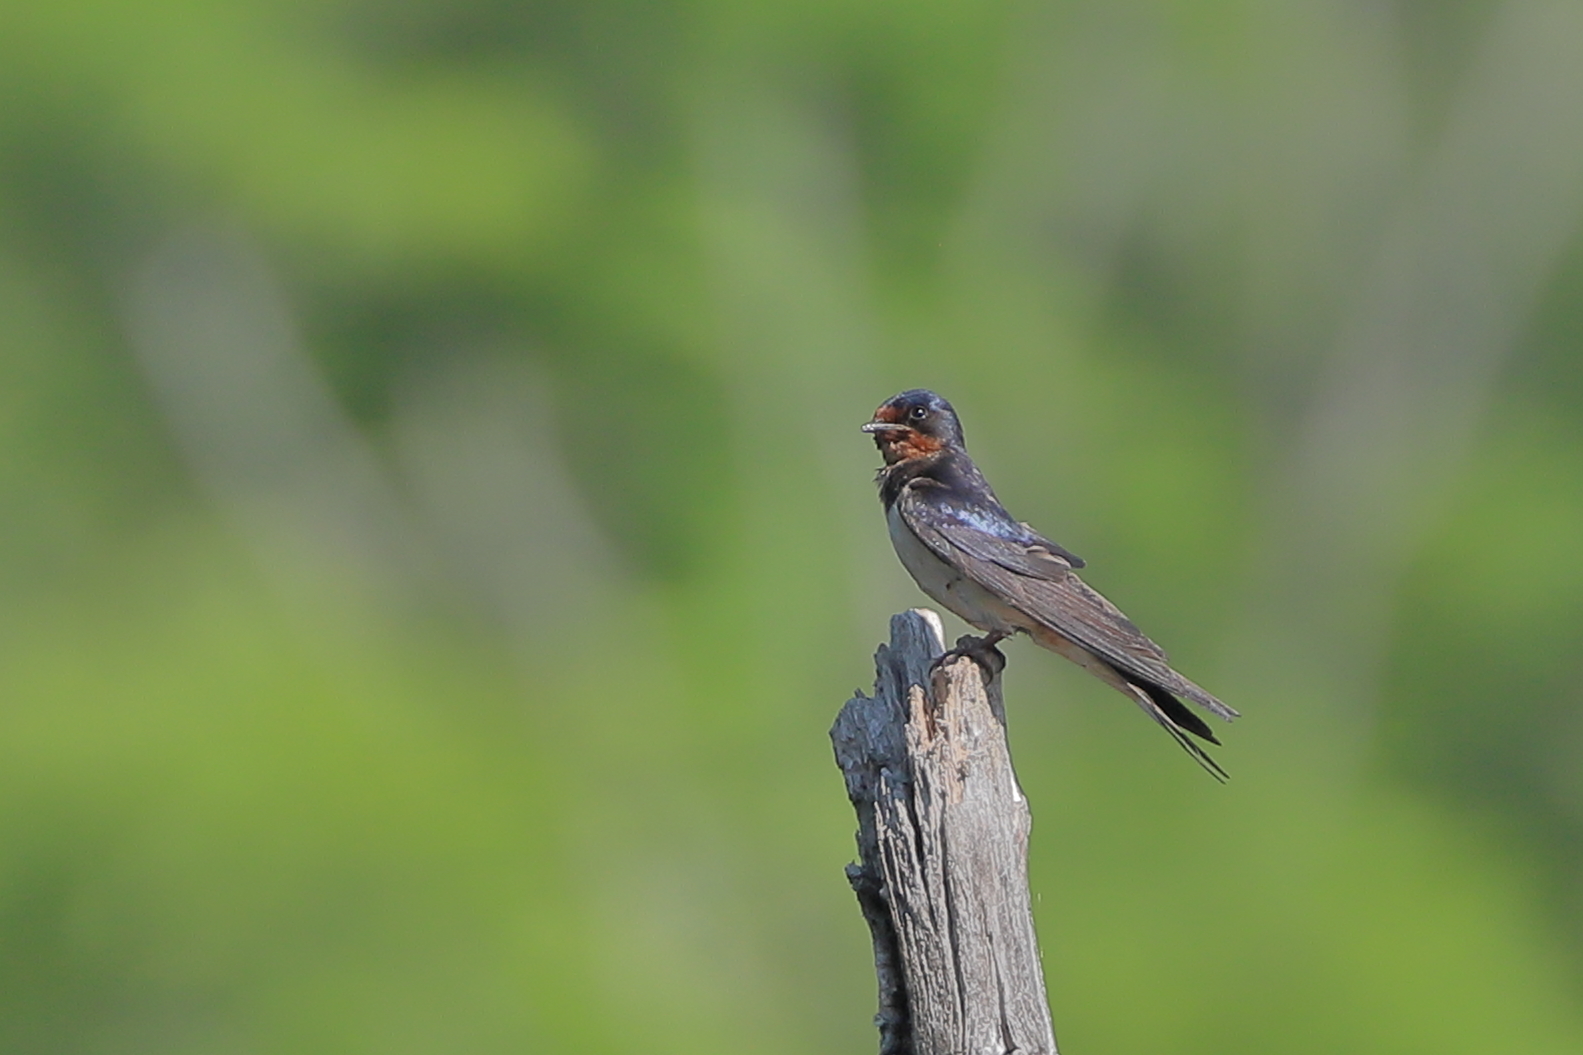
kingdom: Animalia
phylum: Chordata
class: Aves
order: Passeriformes
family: Hirundinidae
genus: Hirundo
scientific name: Hirundo rustica
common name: Barn swallow
